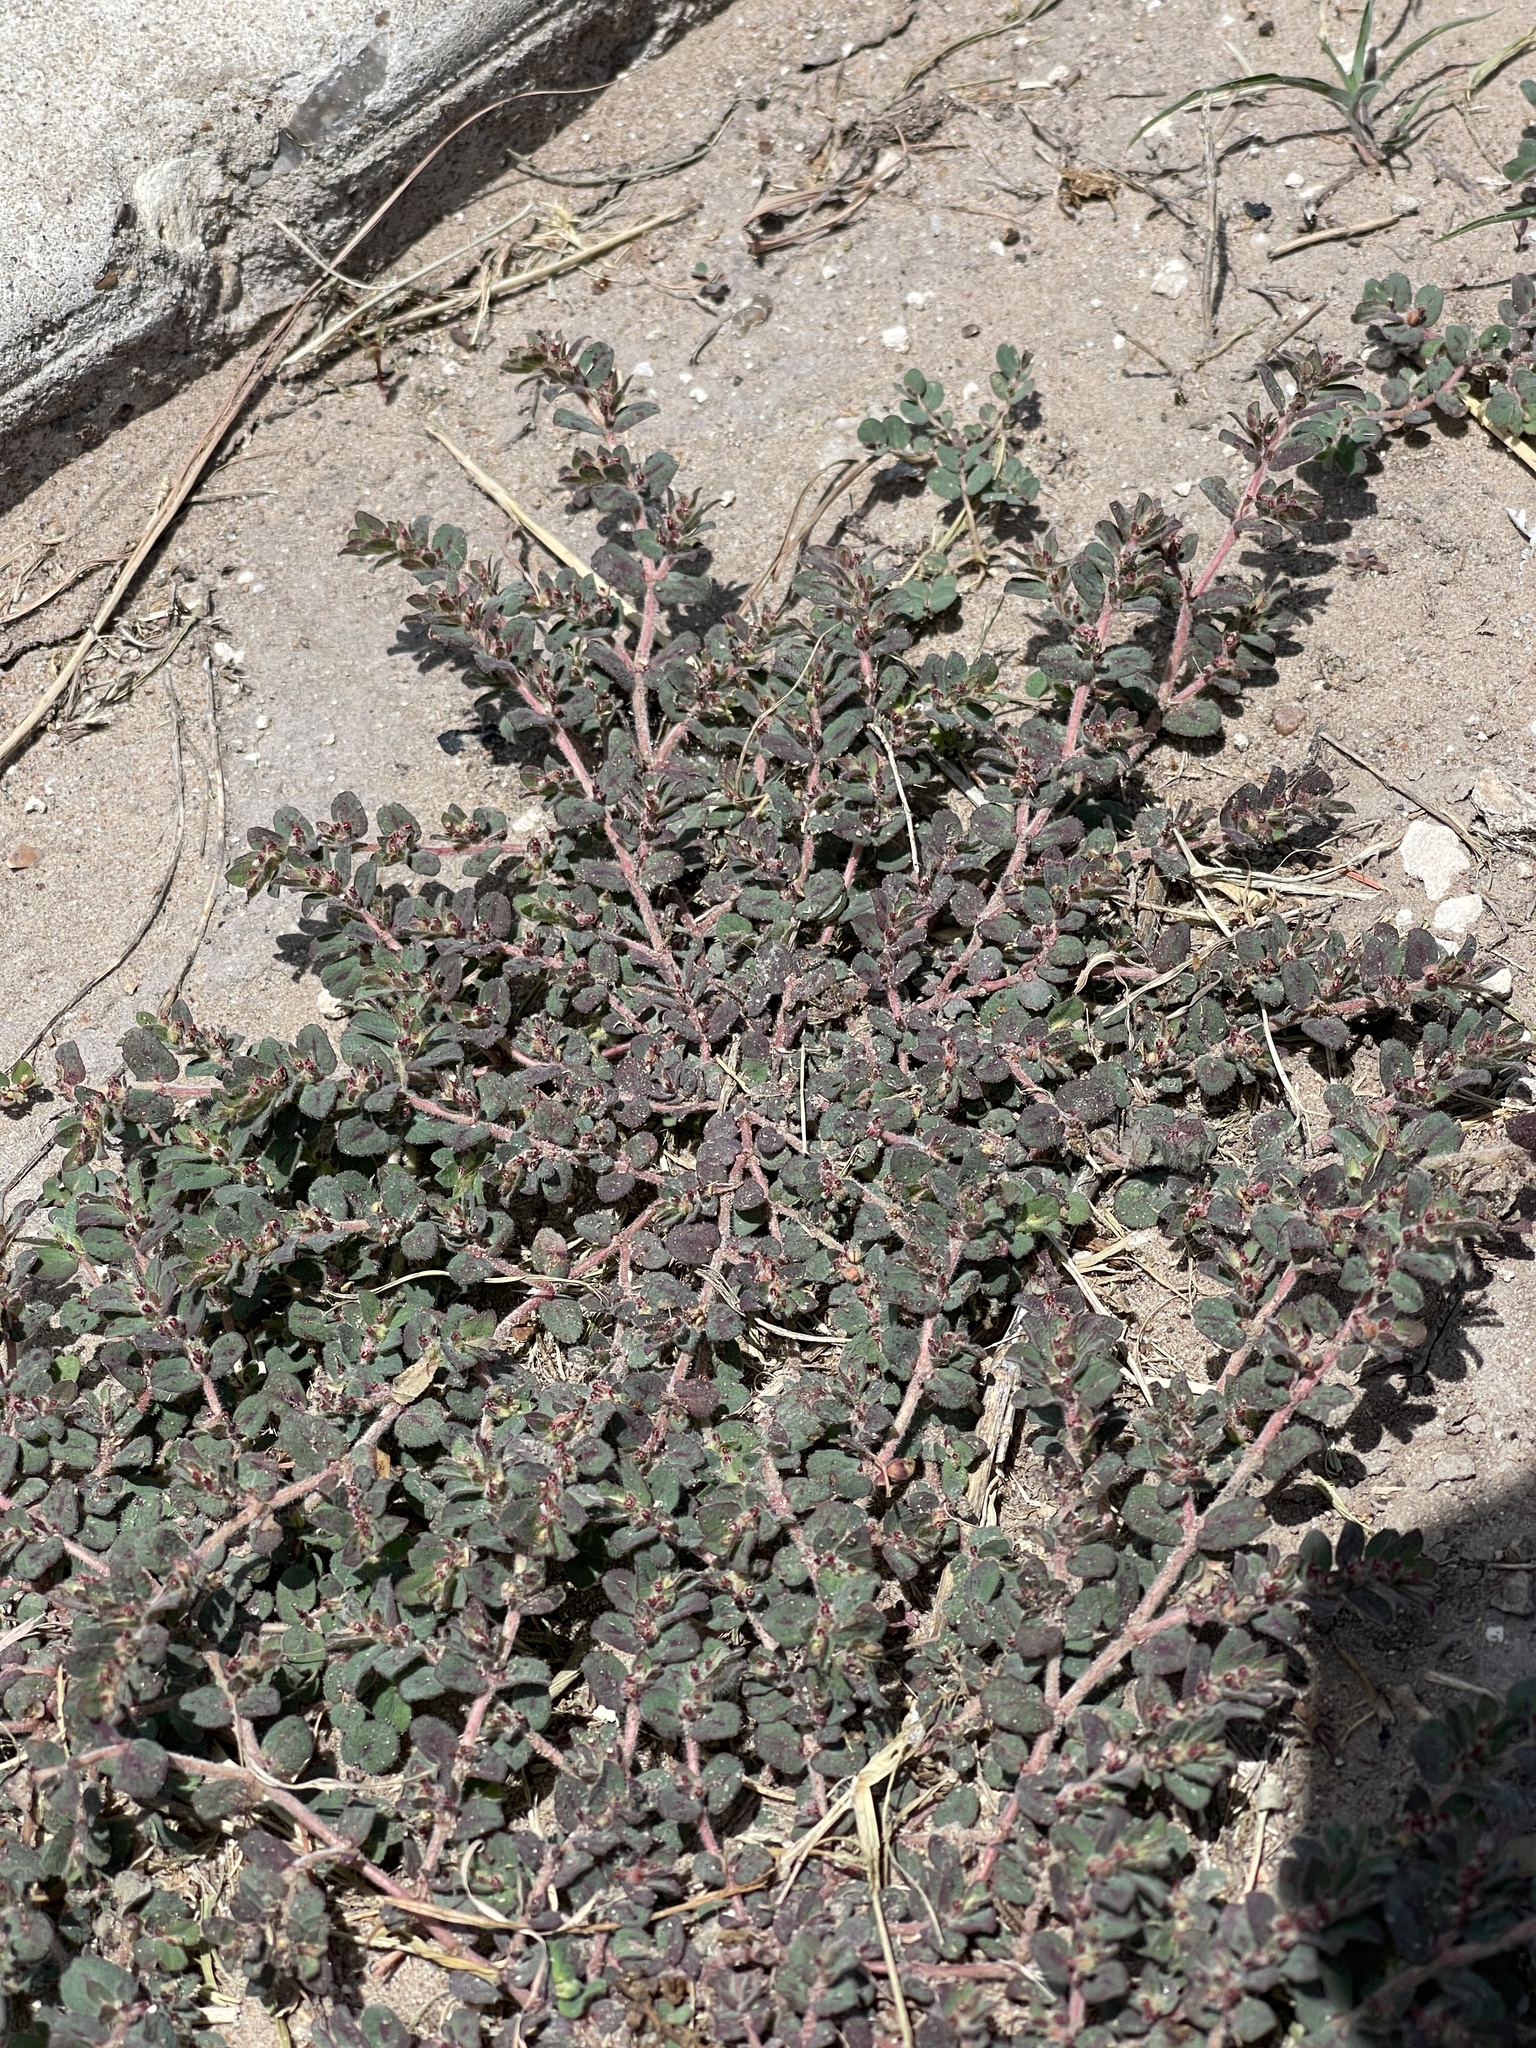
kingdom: Plantae
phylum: Tracheophyta
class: Magnoliopsida
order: Malpighiales
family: Euphorbiaceae
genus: Euphorbia
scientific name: Euphorbia velleriflora
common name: Caliche sandmat
